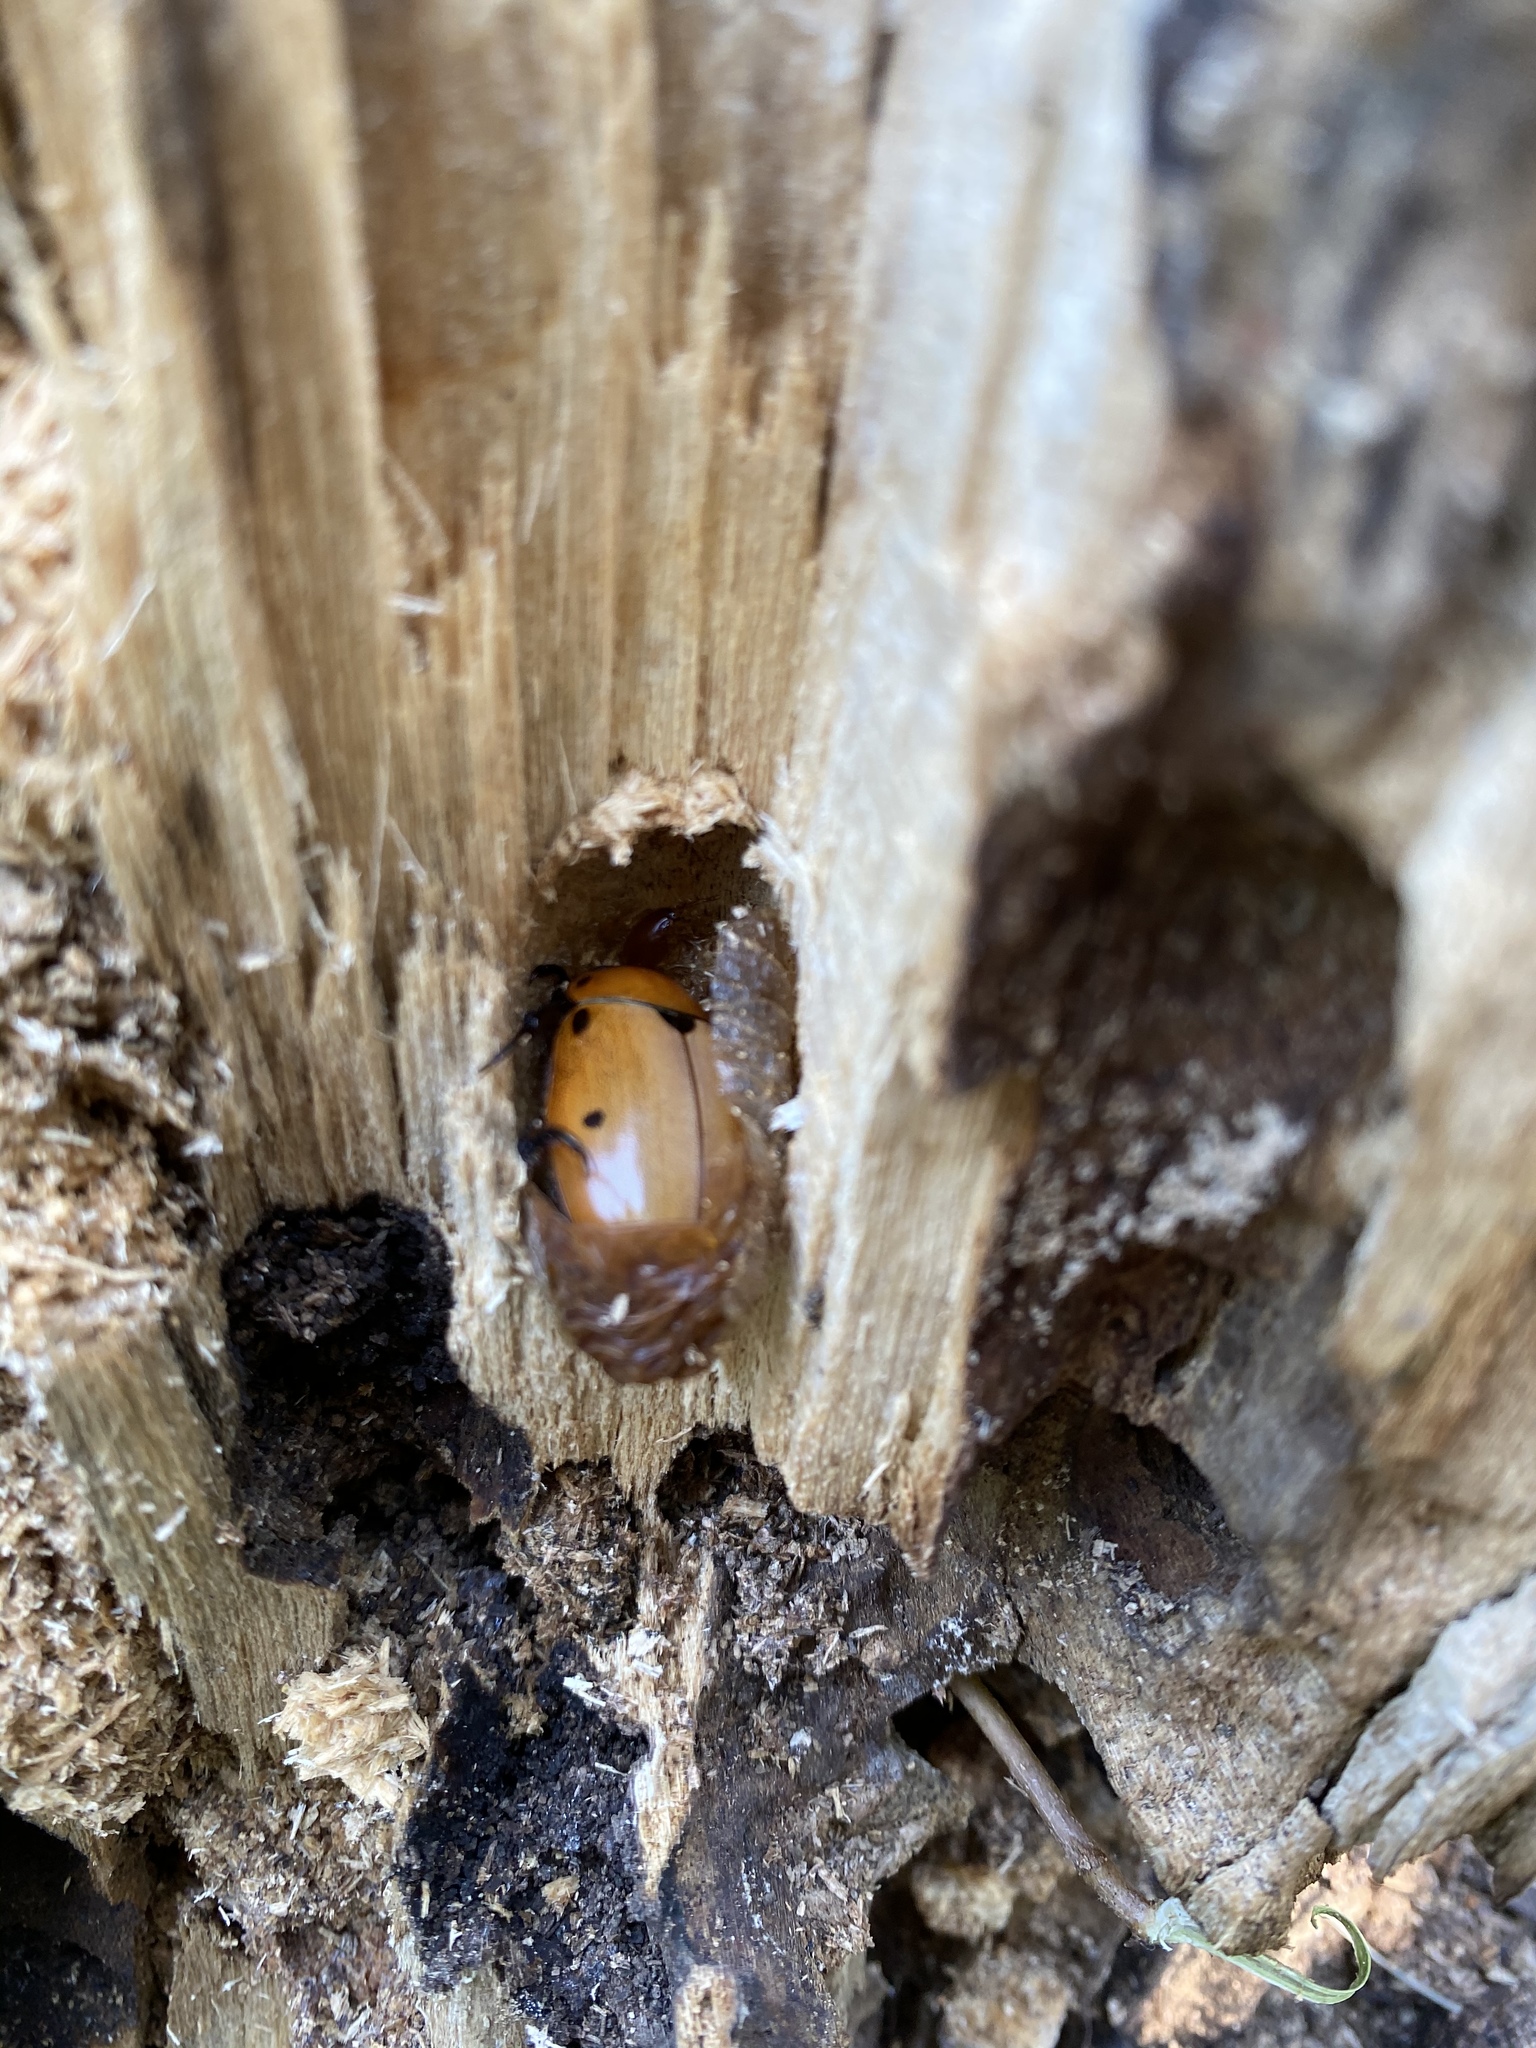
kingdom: Animalia
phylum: Arthropoda
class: Insecta
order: Coleoptera
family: Scarabaeidae
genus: Pelidnota
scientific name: Pelidnota punctata
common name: Grapevine beetle
